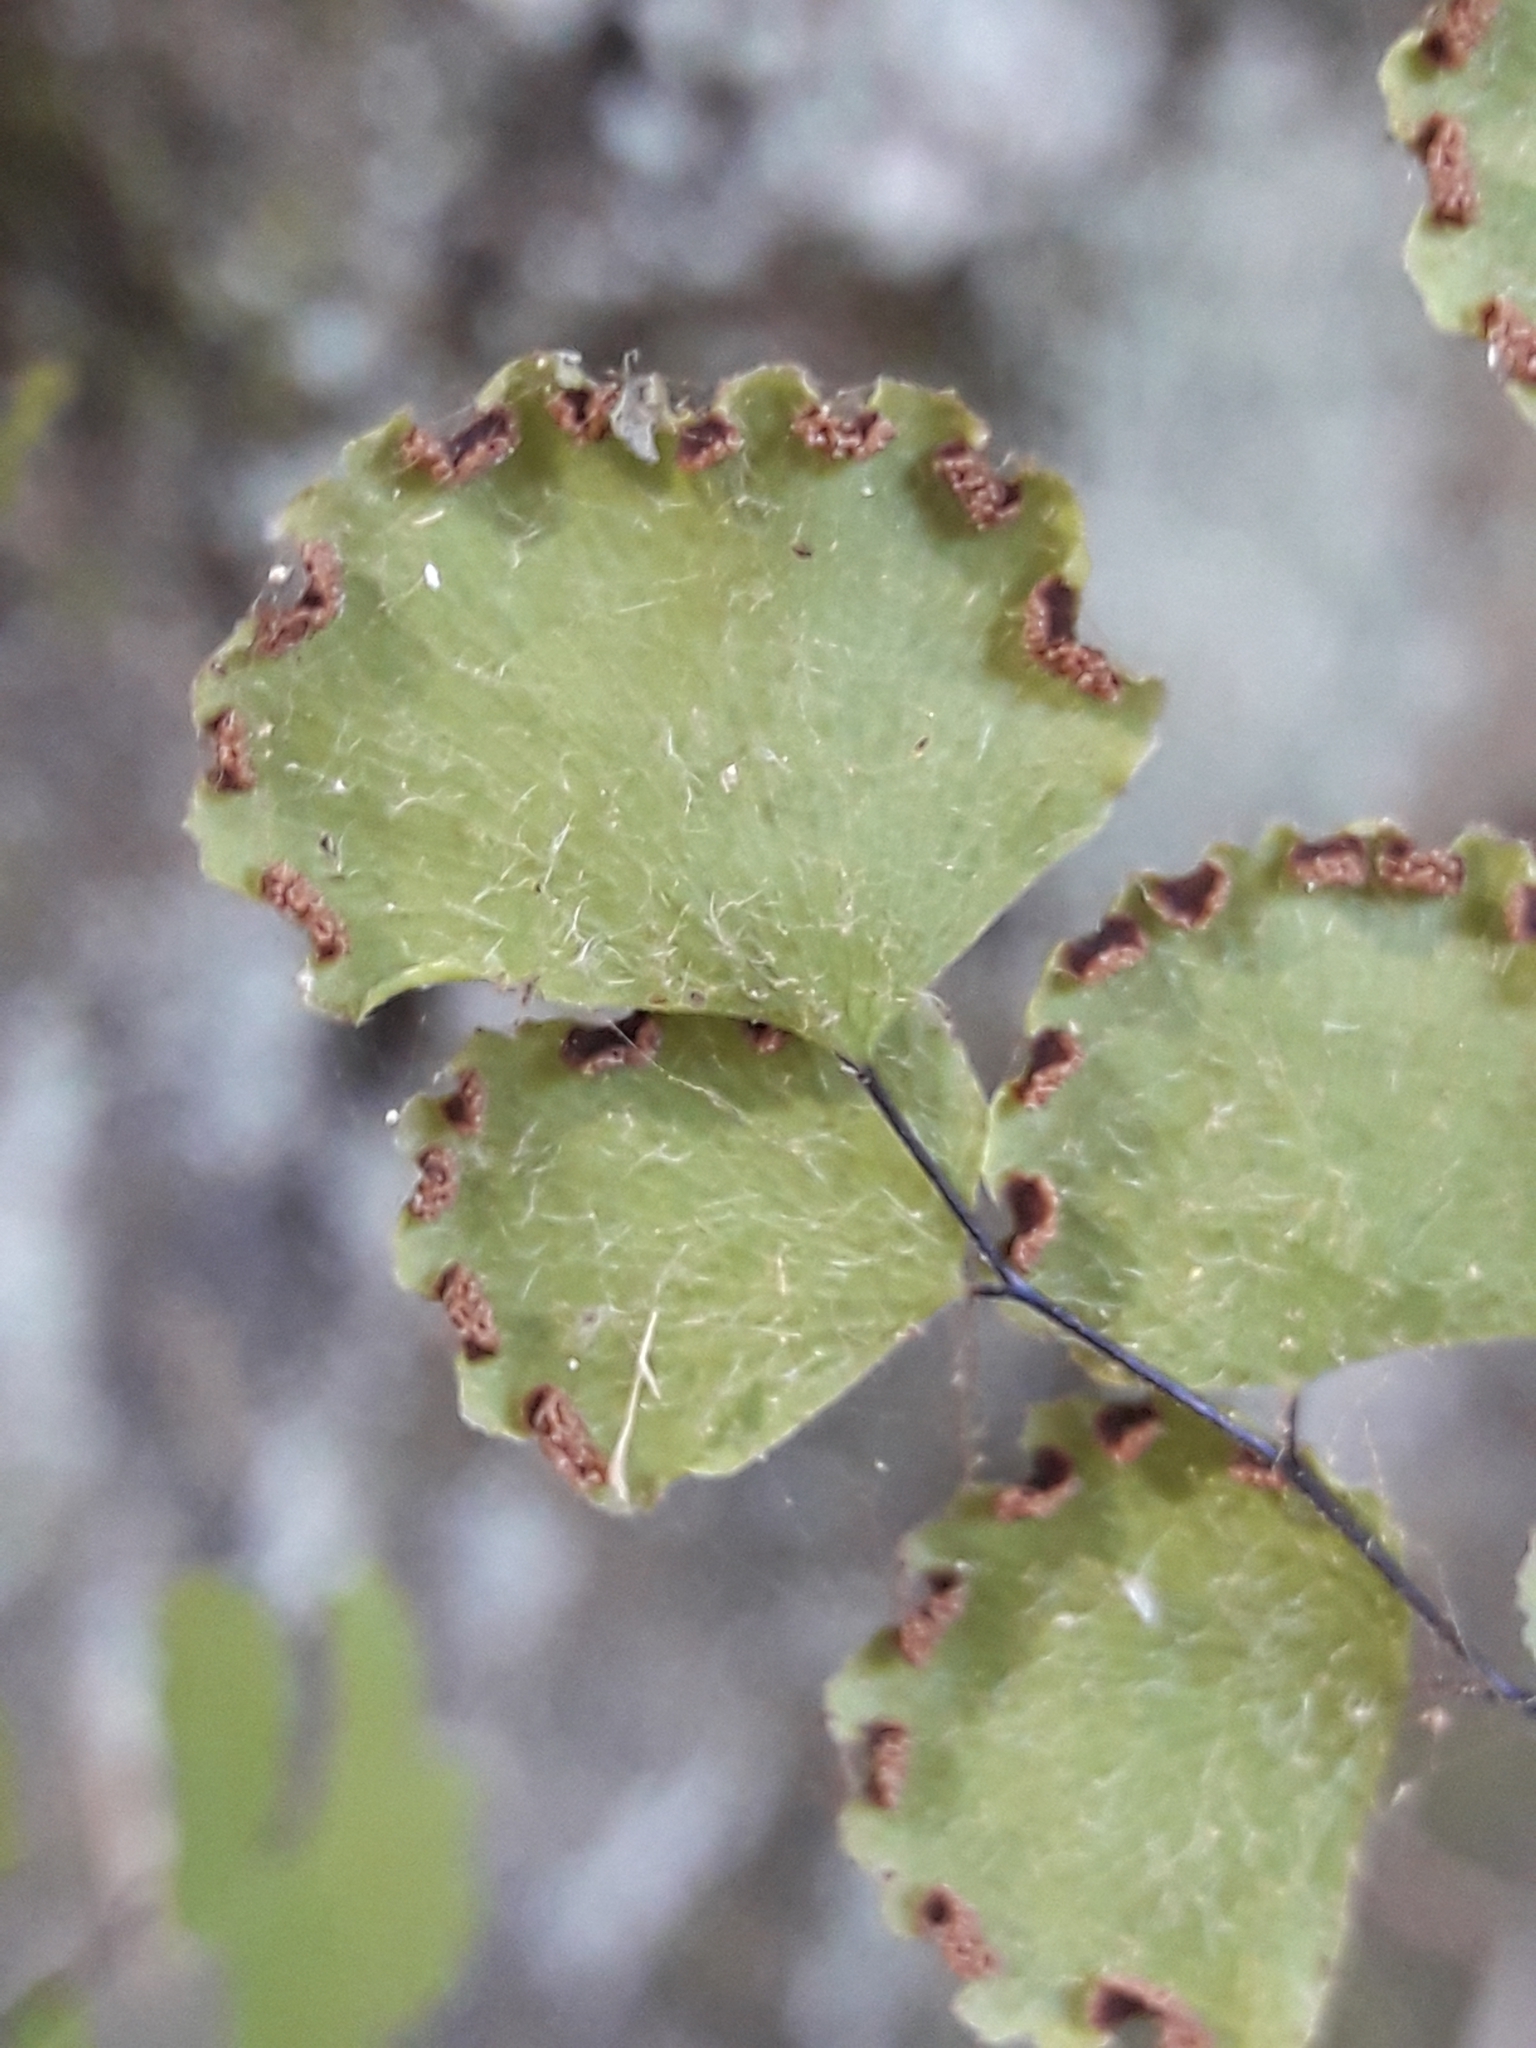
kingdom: Plantae
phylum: Tracheophyta
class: Polypodiopsida
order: Polypodiales
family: Pteridaceae
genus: Adiantum
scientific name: Adiantum chilense
